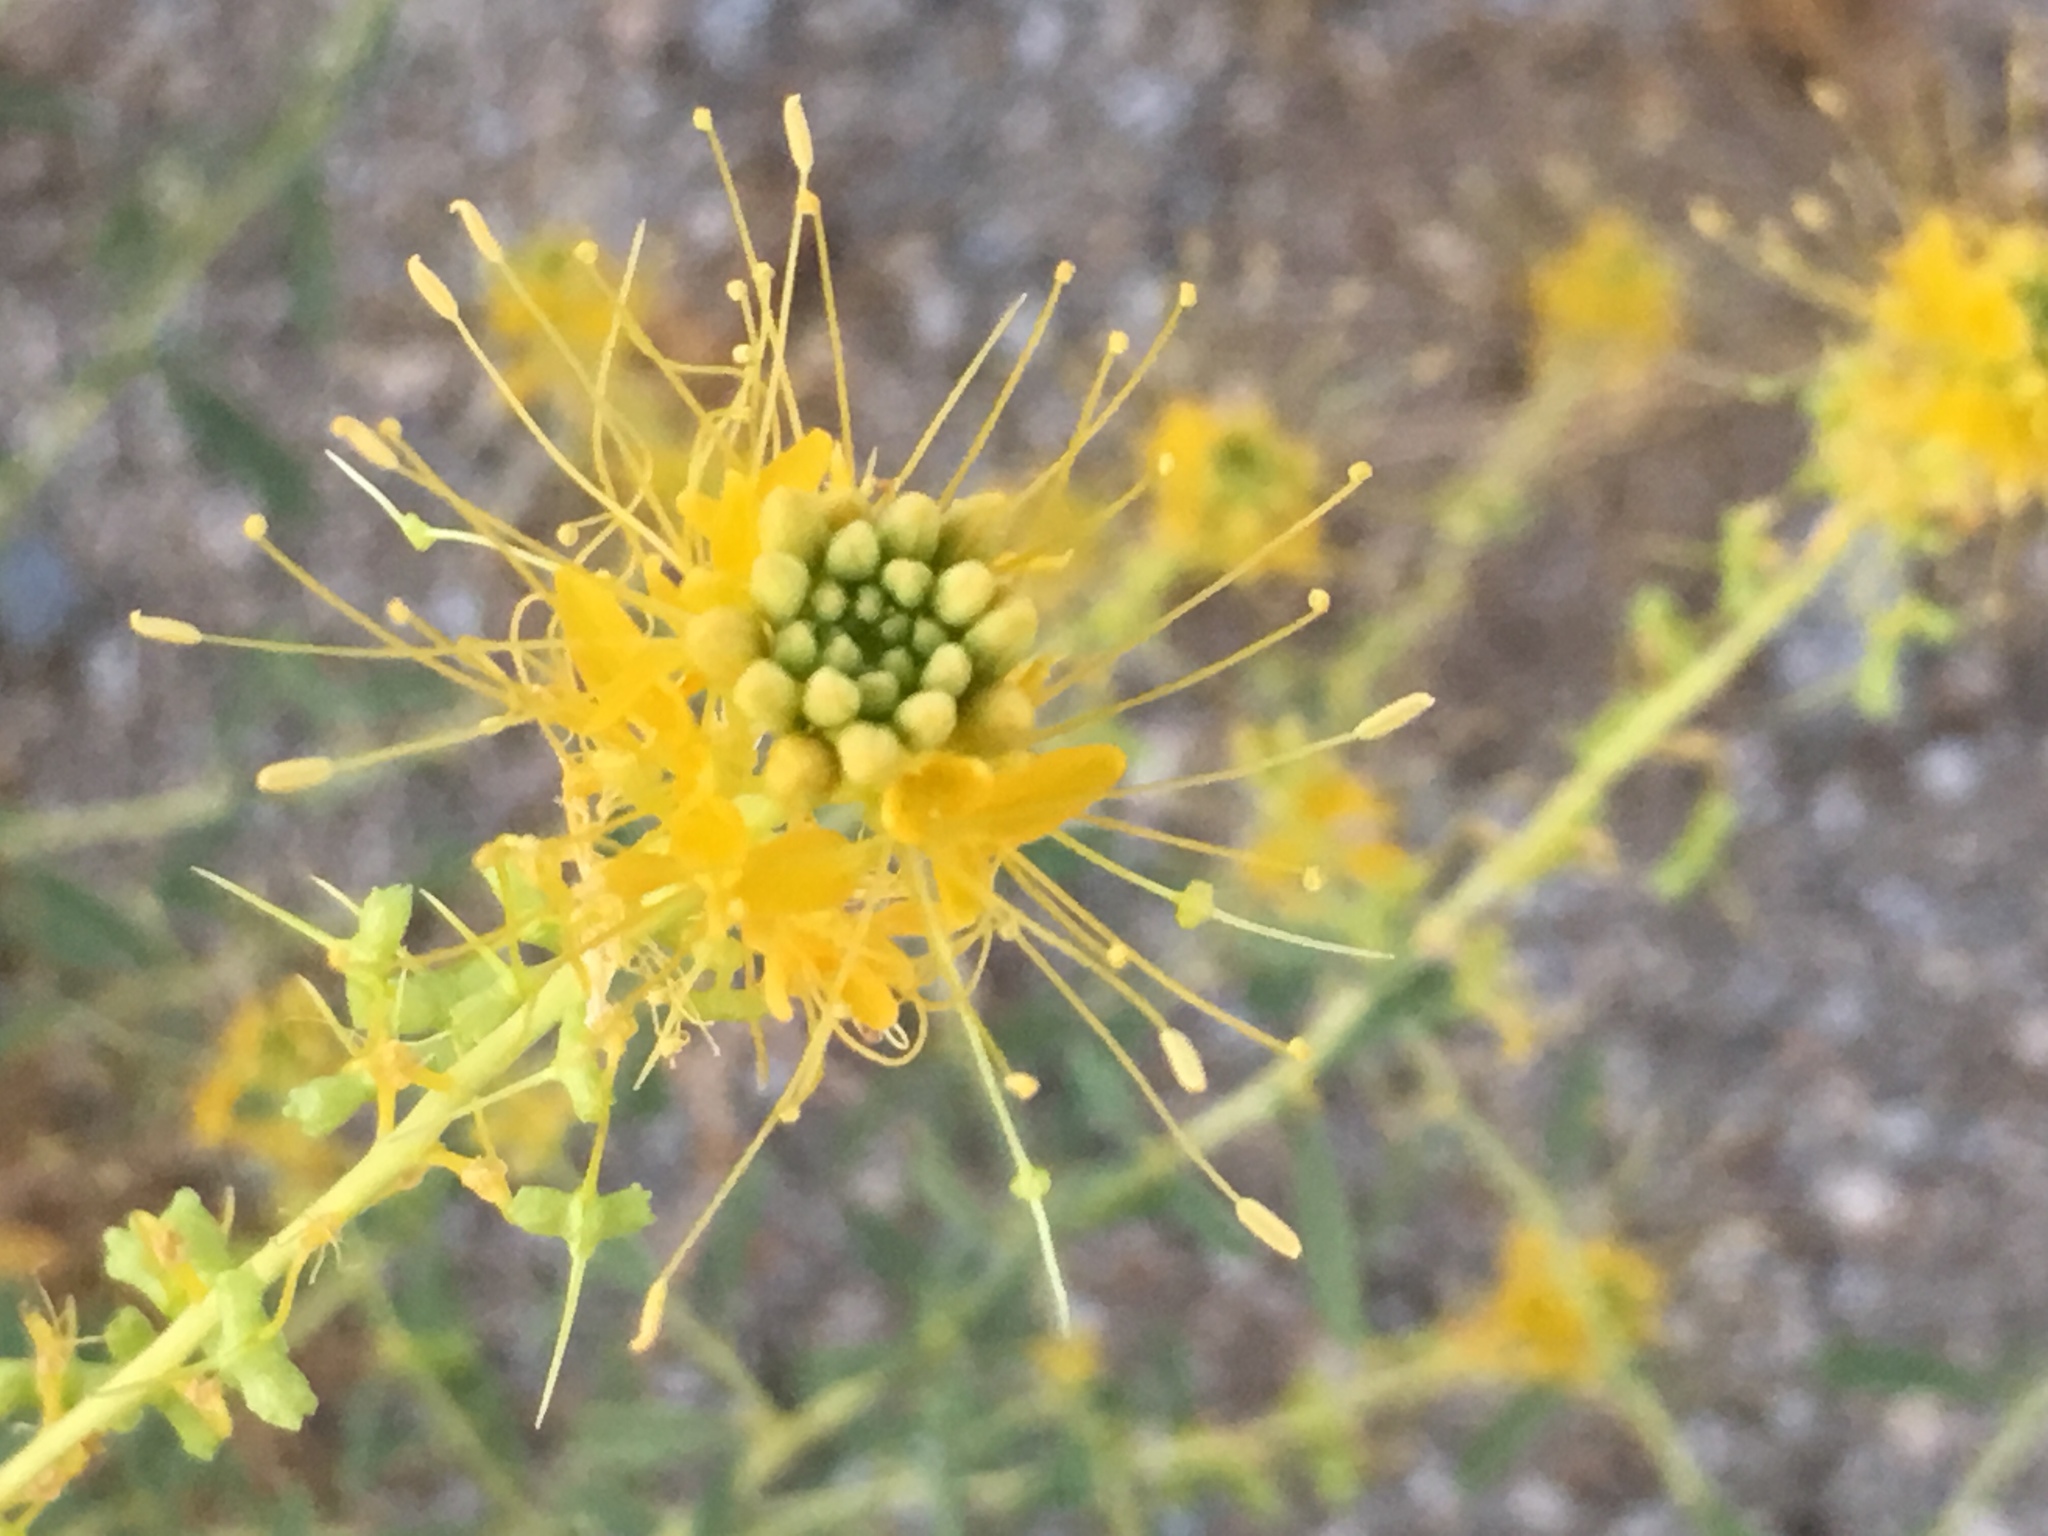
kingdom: Plantae
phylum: Tracheophyta
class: Magnoliopsida
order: Brassicales
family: Cleomaceae
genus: Cleomella
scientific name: Cleomella palmeri
